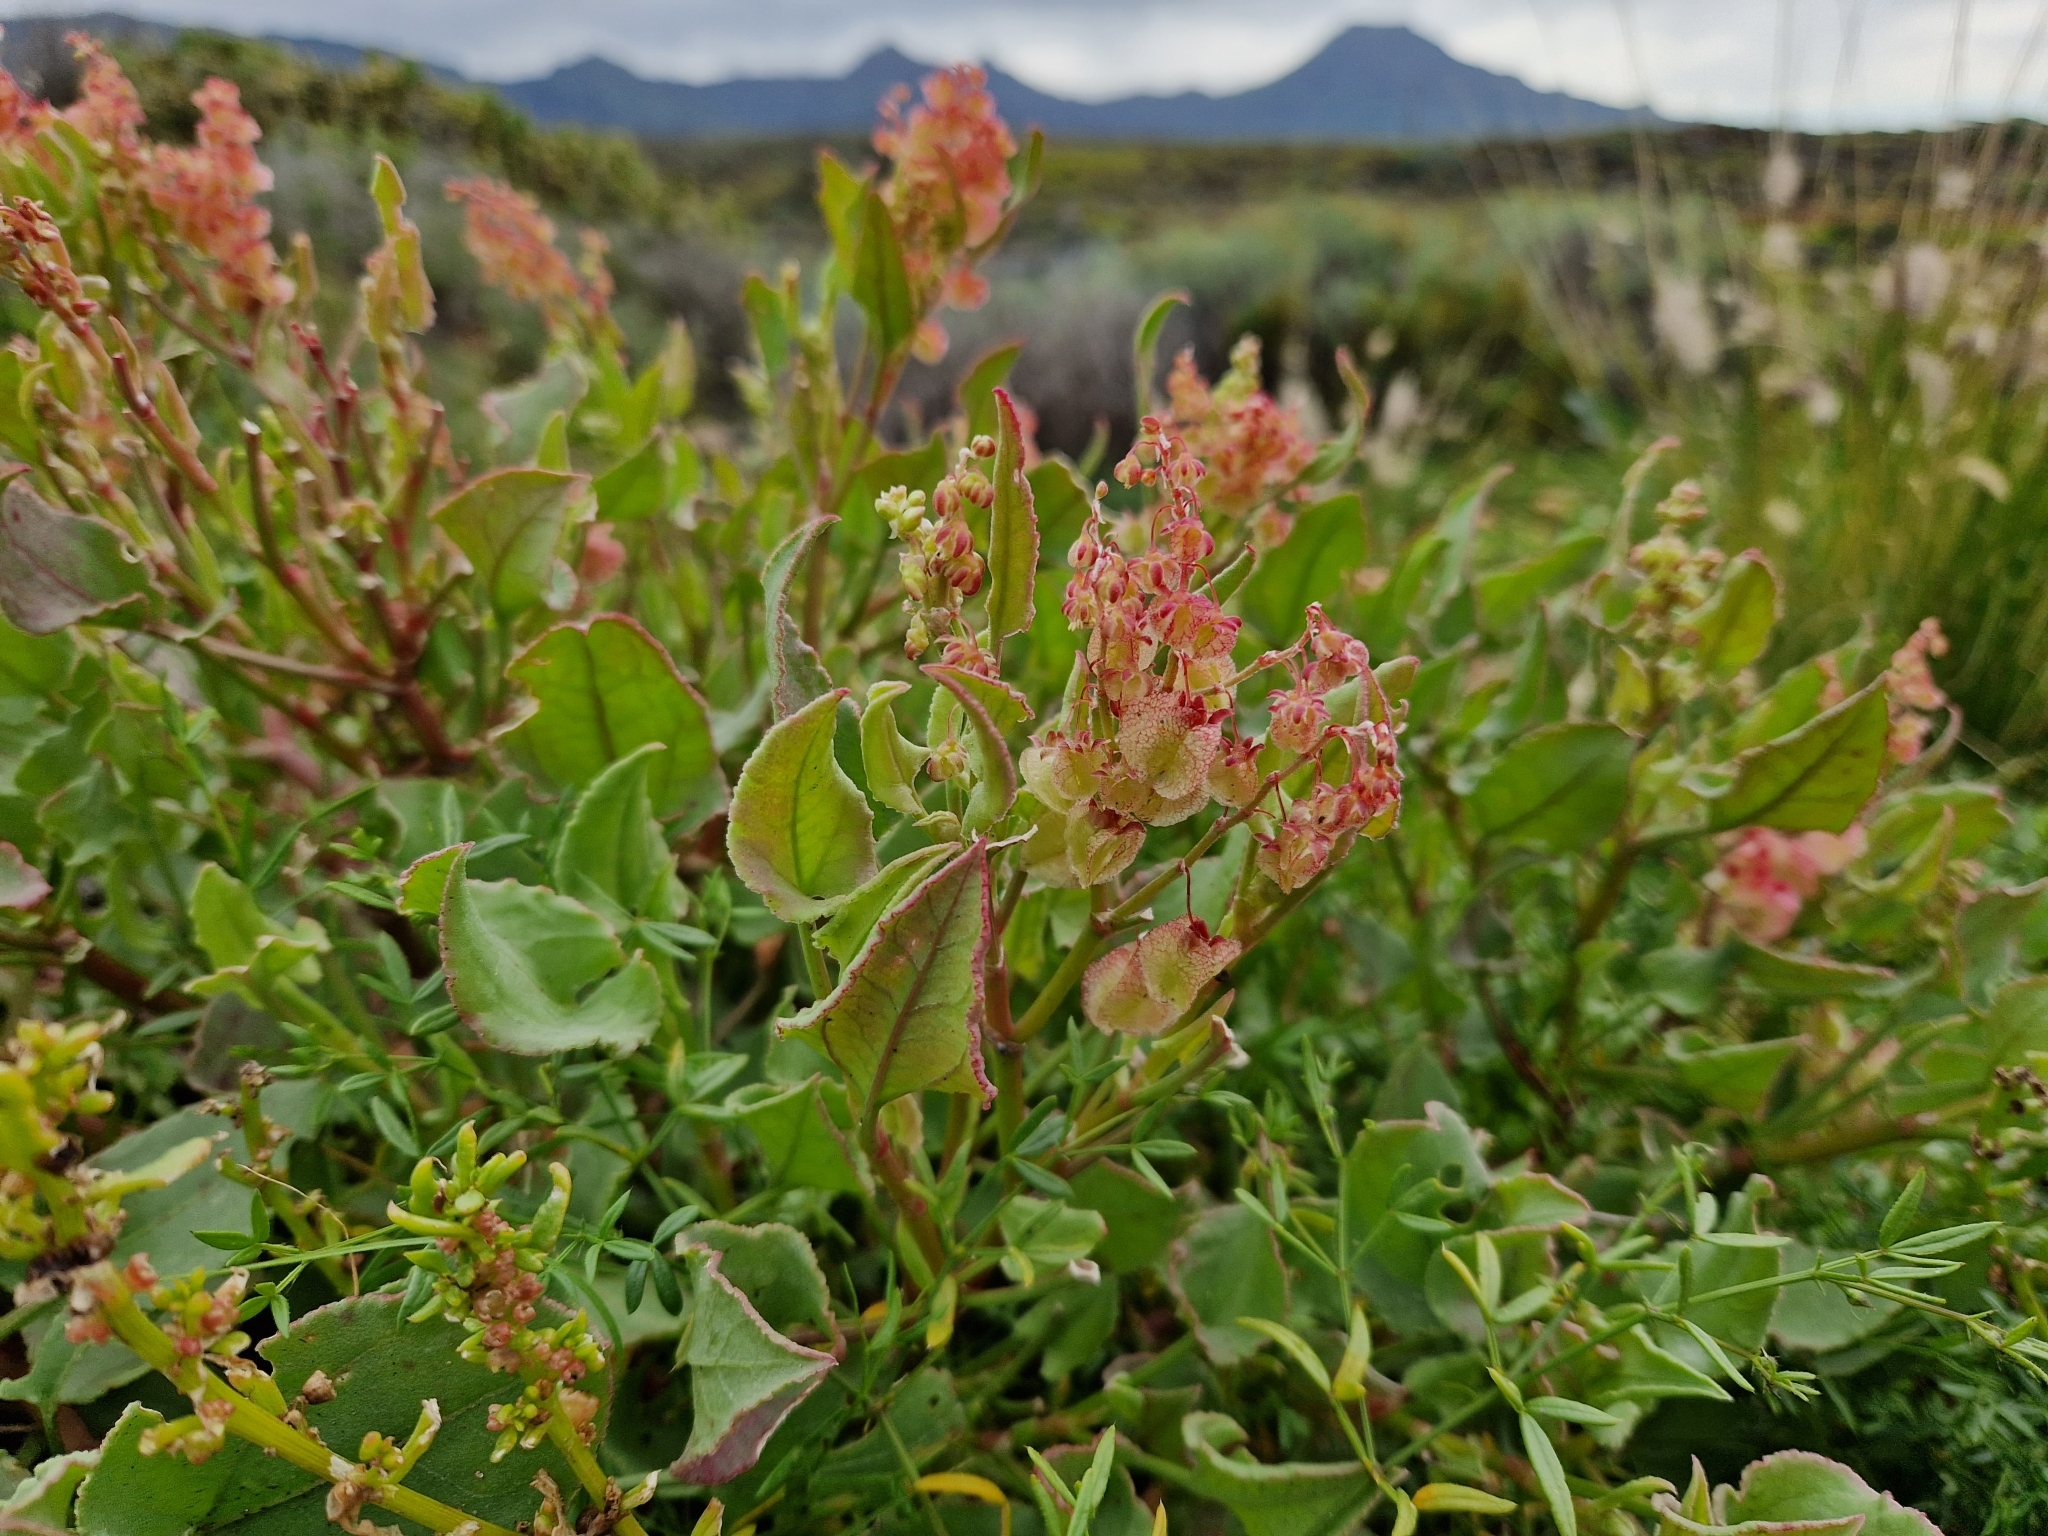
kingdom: Plantae
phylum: Tracheophyta
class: Magnoliopsida
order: Caryophyllales
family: Polygonaceae
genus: Rumex
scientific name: Rumex vesicarius
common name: Bladder dock
